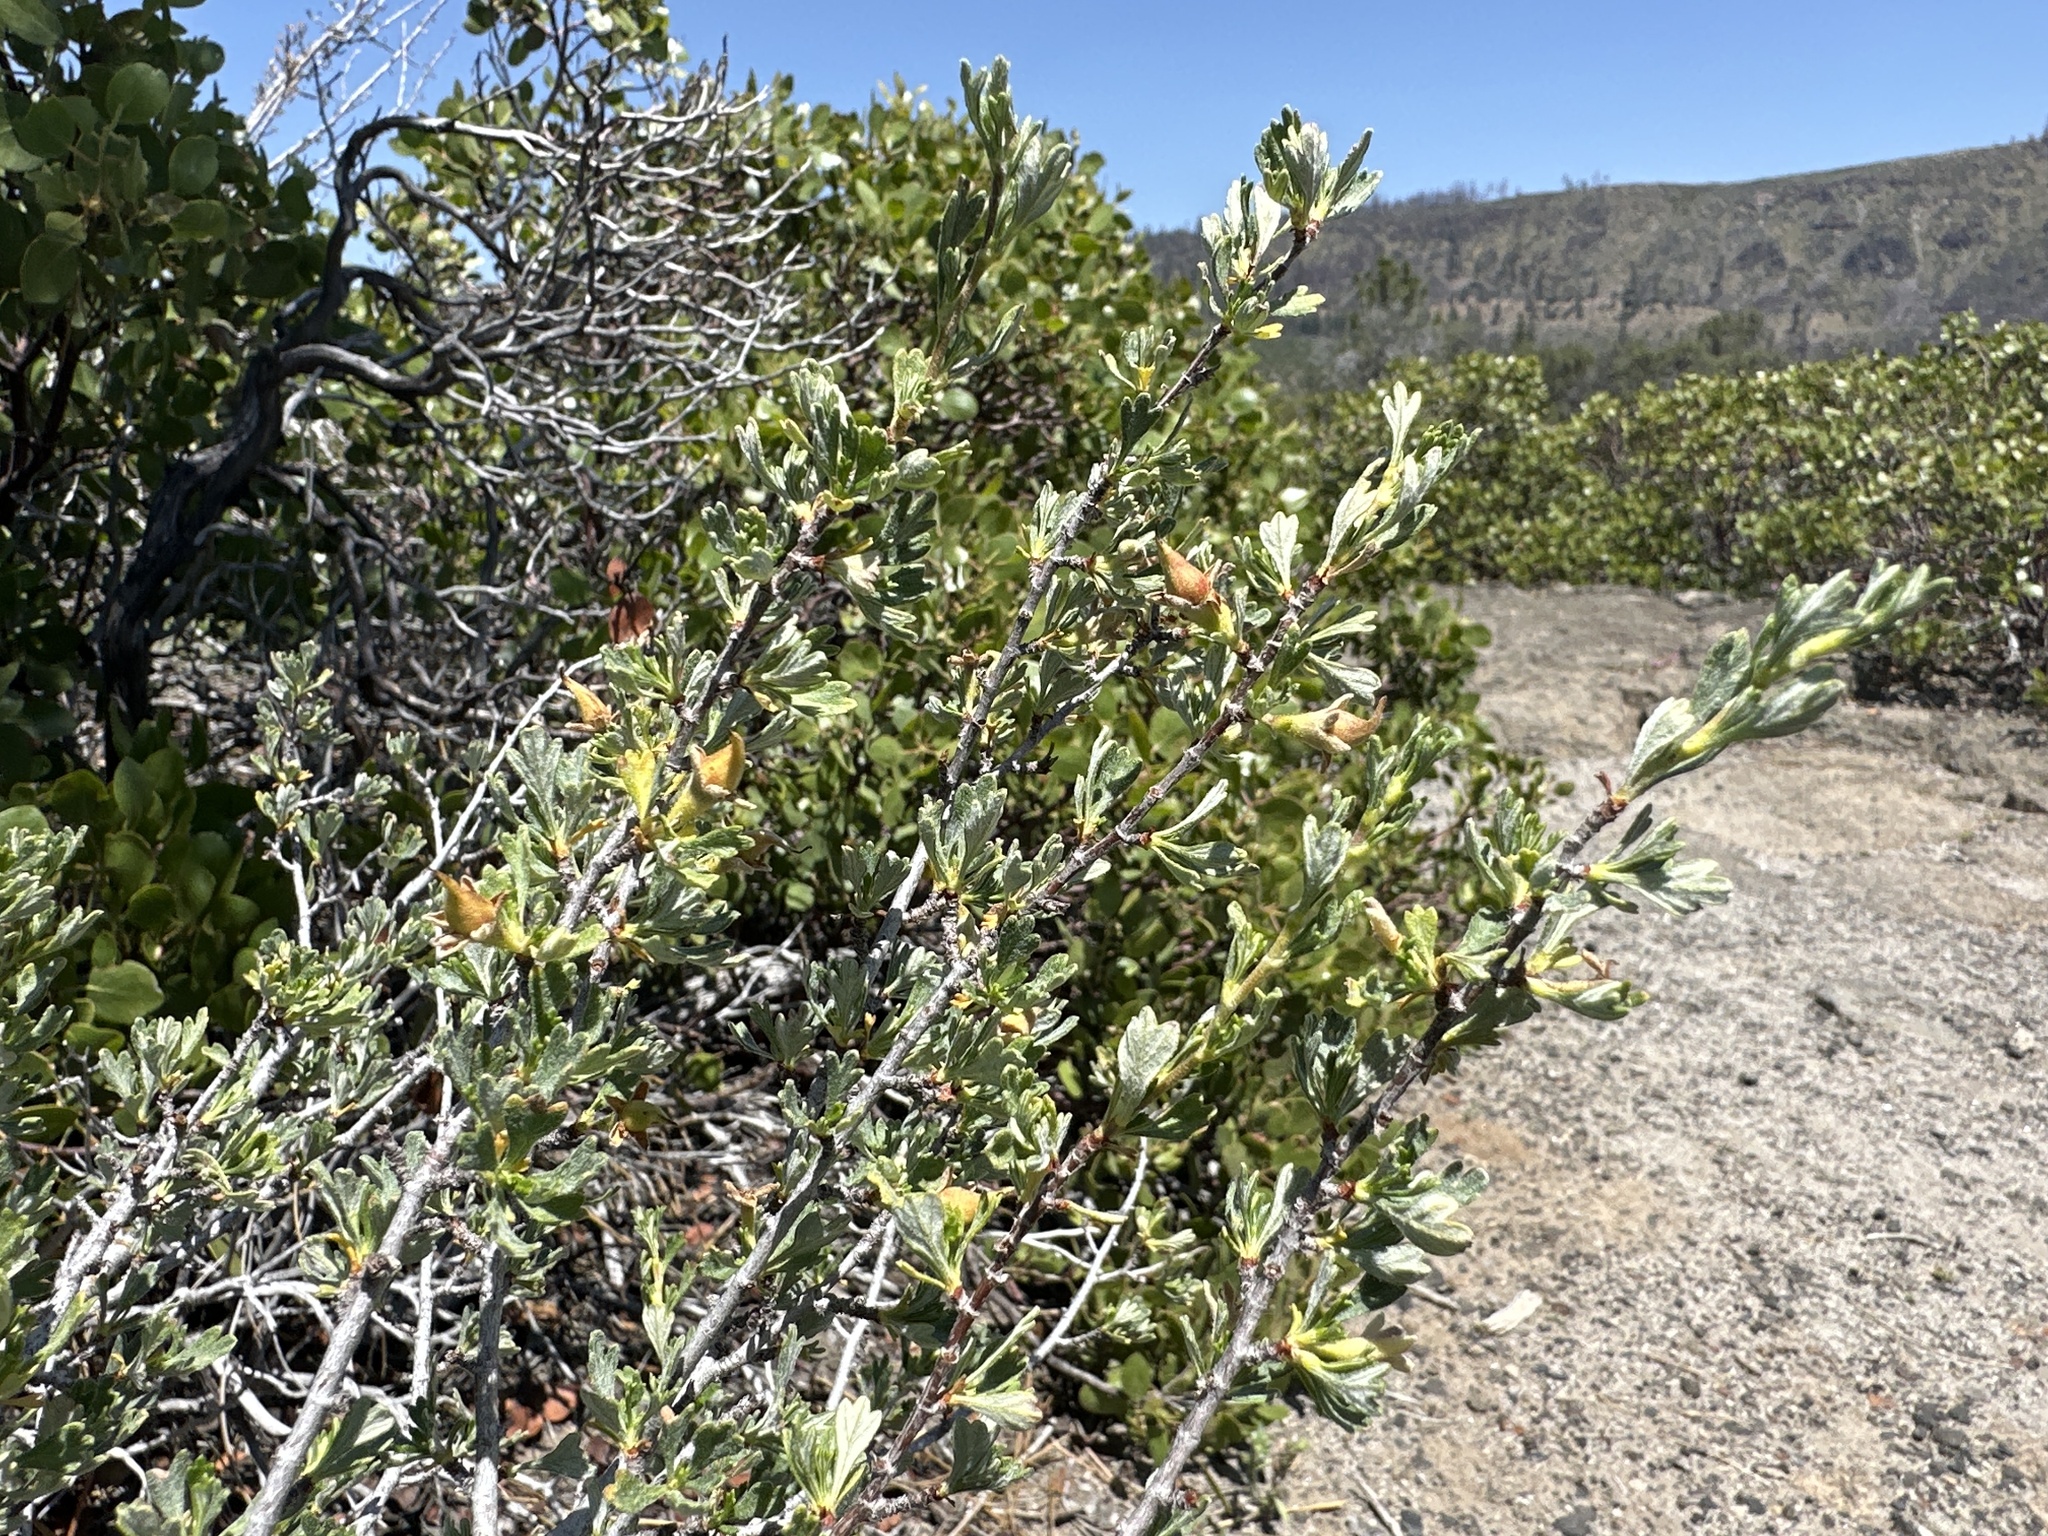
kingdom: Plantae
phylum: Tracheophyta
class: Magnoliopsida
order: Rosales
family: Rosaceae
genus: Purshia
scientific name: Purshia tridentata
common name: Antelope bitterbrush
